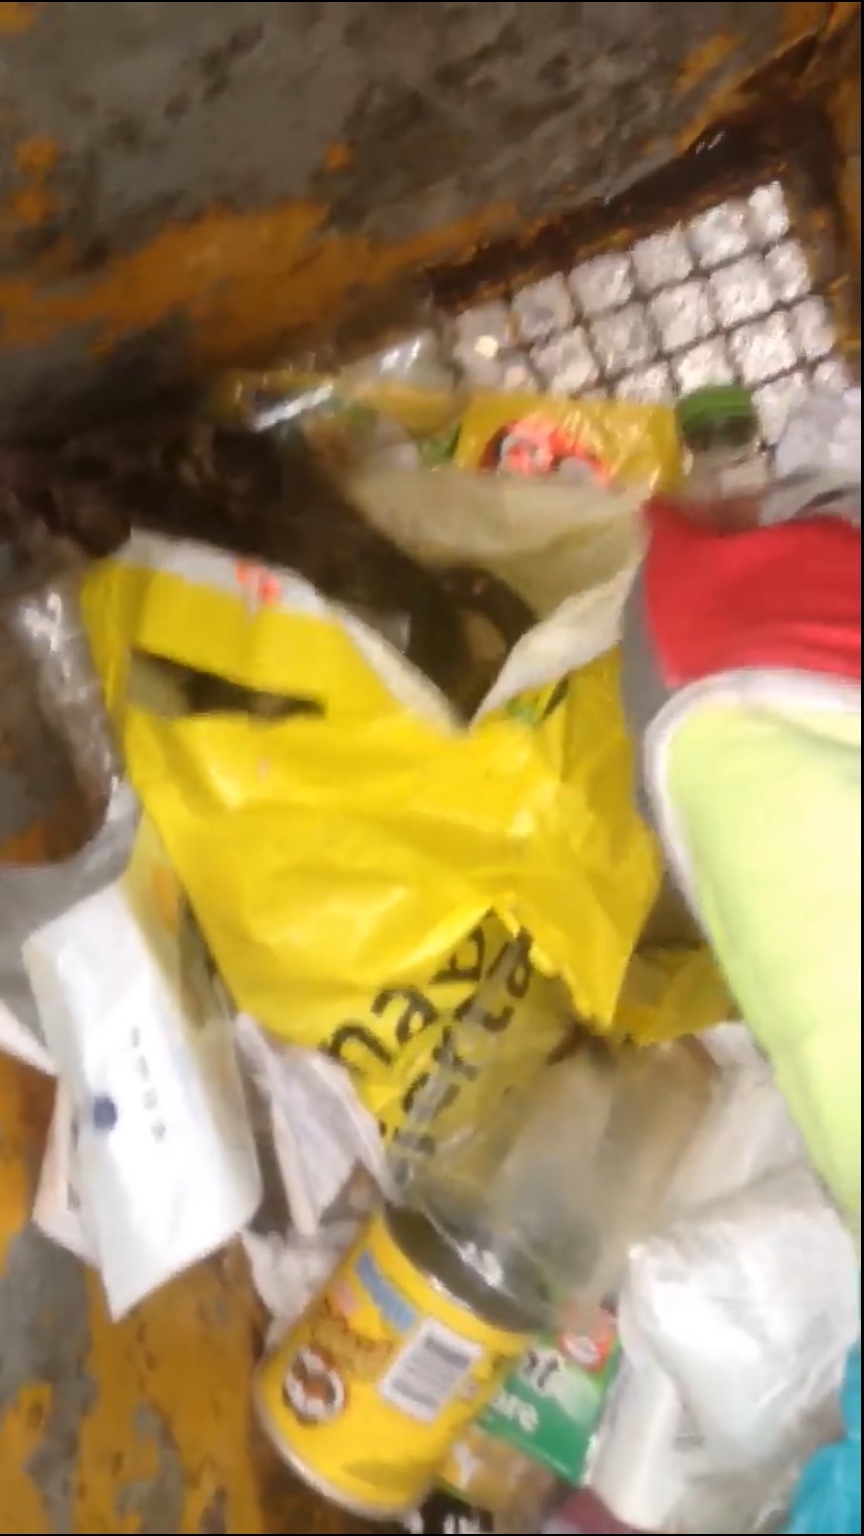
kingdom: Animalia
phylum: Chordata
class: Mammalia
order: Didelphimorphia
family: Didelphidae
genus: Didelphis
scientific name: Didelphis virginiana
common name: Virginia opossum
